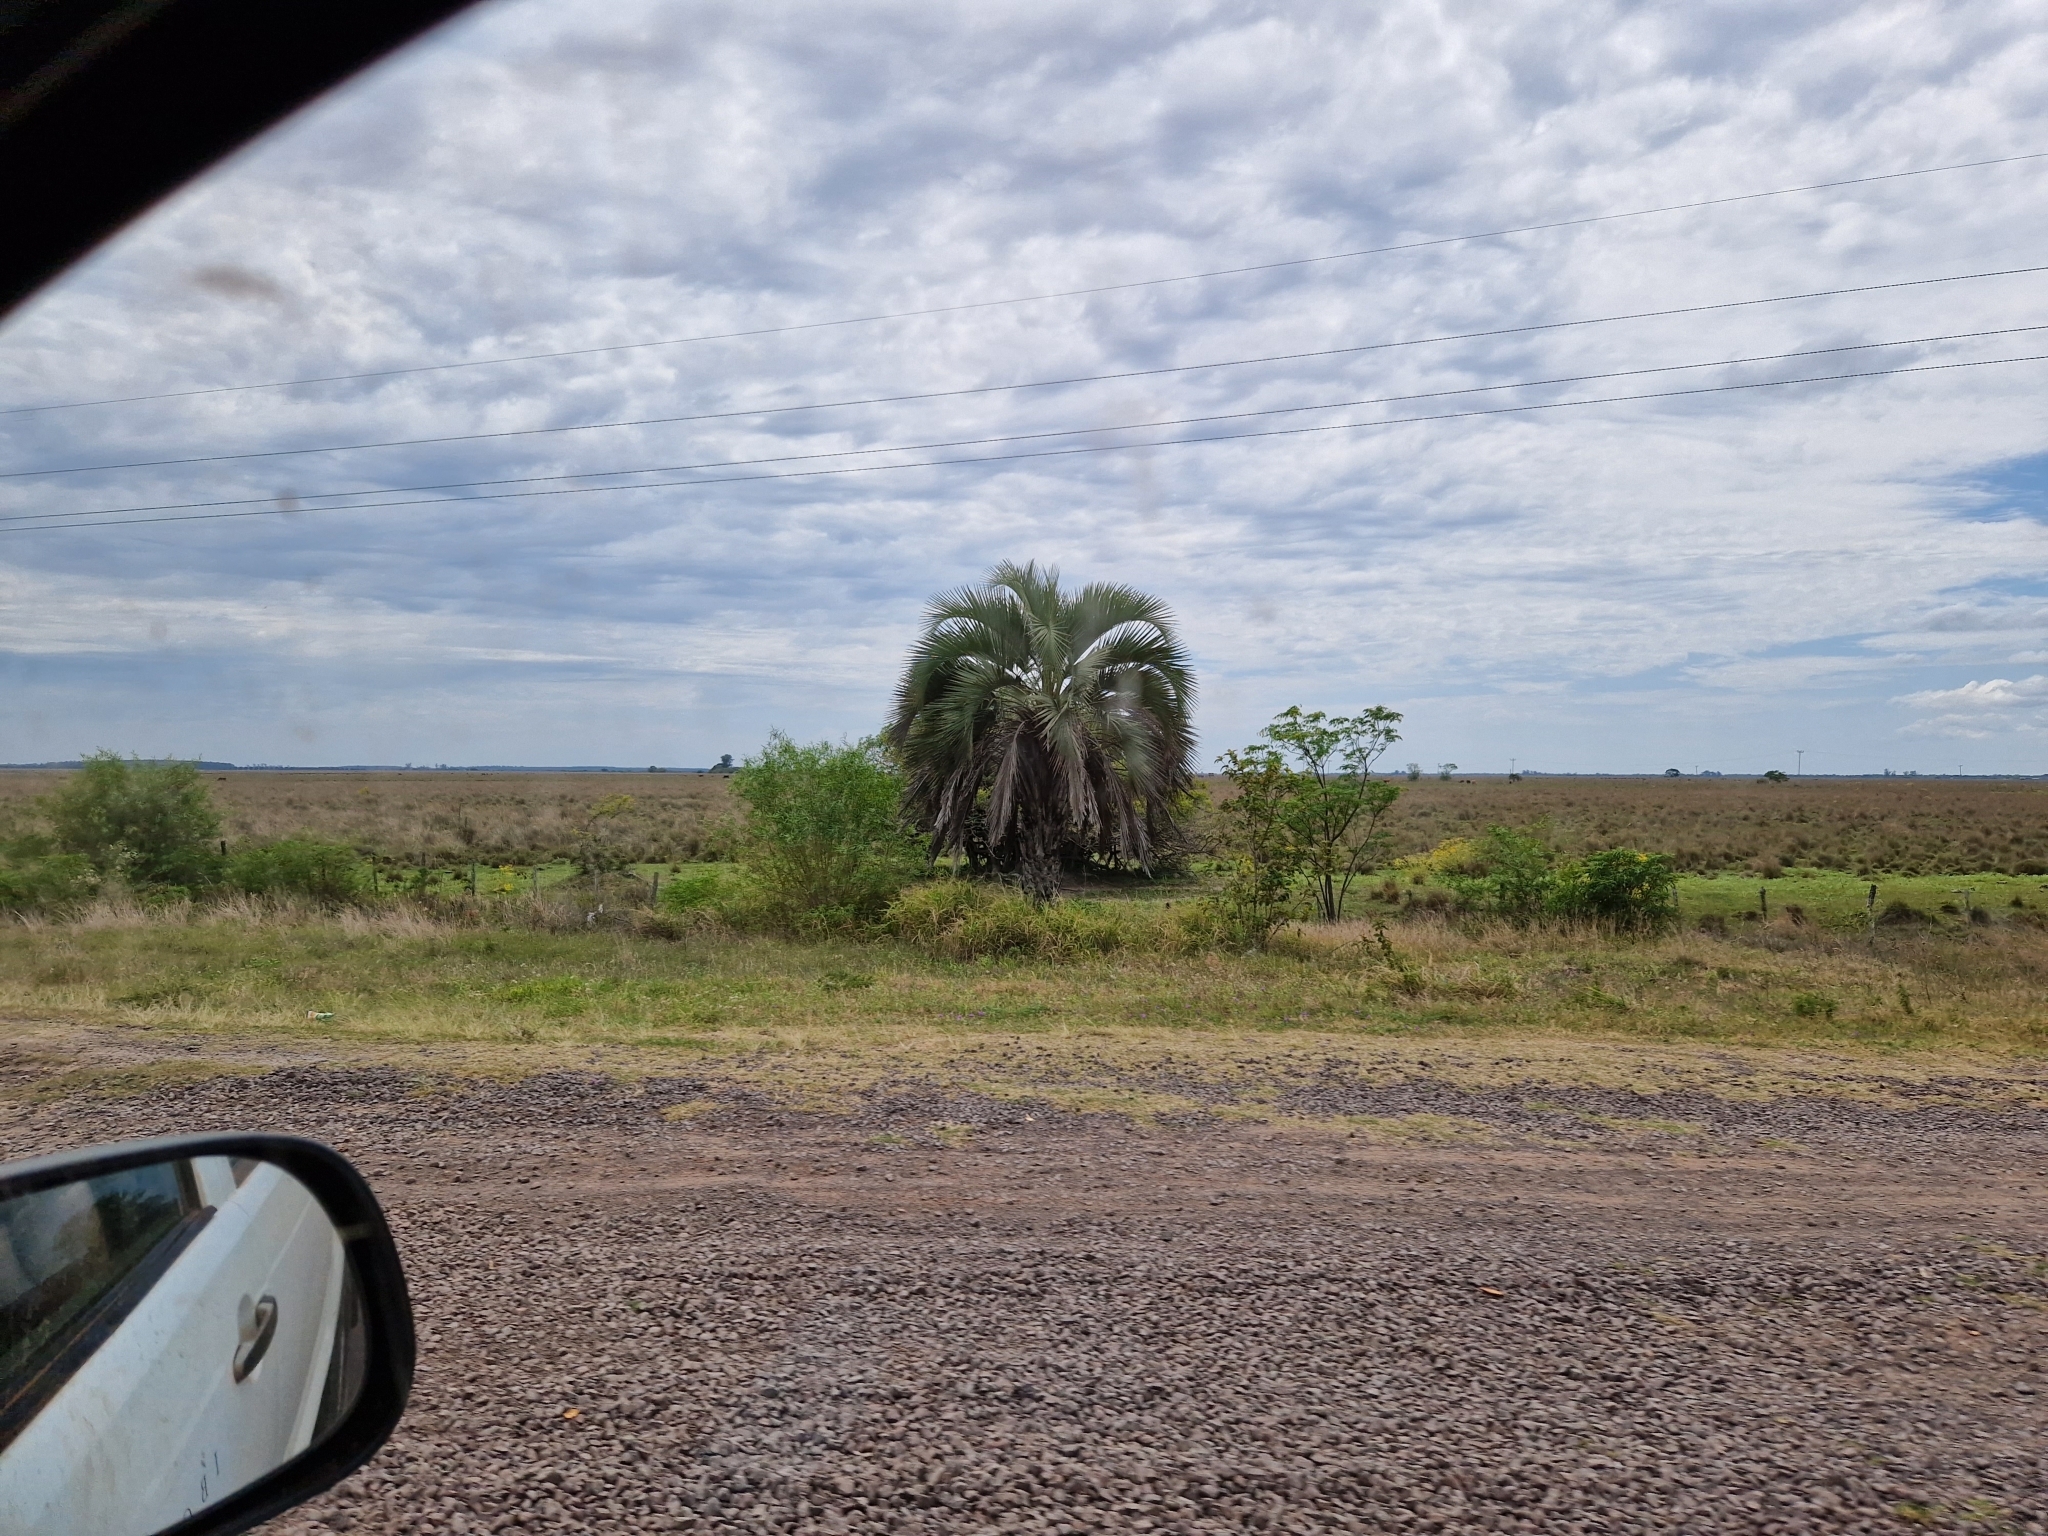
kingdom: Plantae
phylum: Tracheophyta
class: Liliopsida
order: Arecales
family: Arecaceae
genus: Butia
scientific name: Butia yatay
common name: Yatay palm
